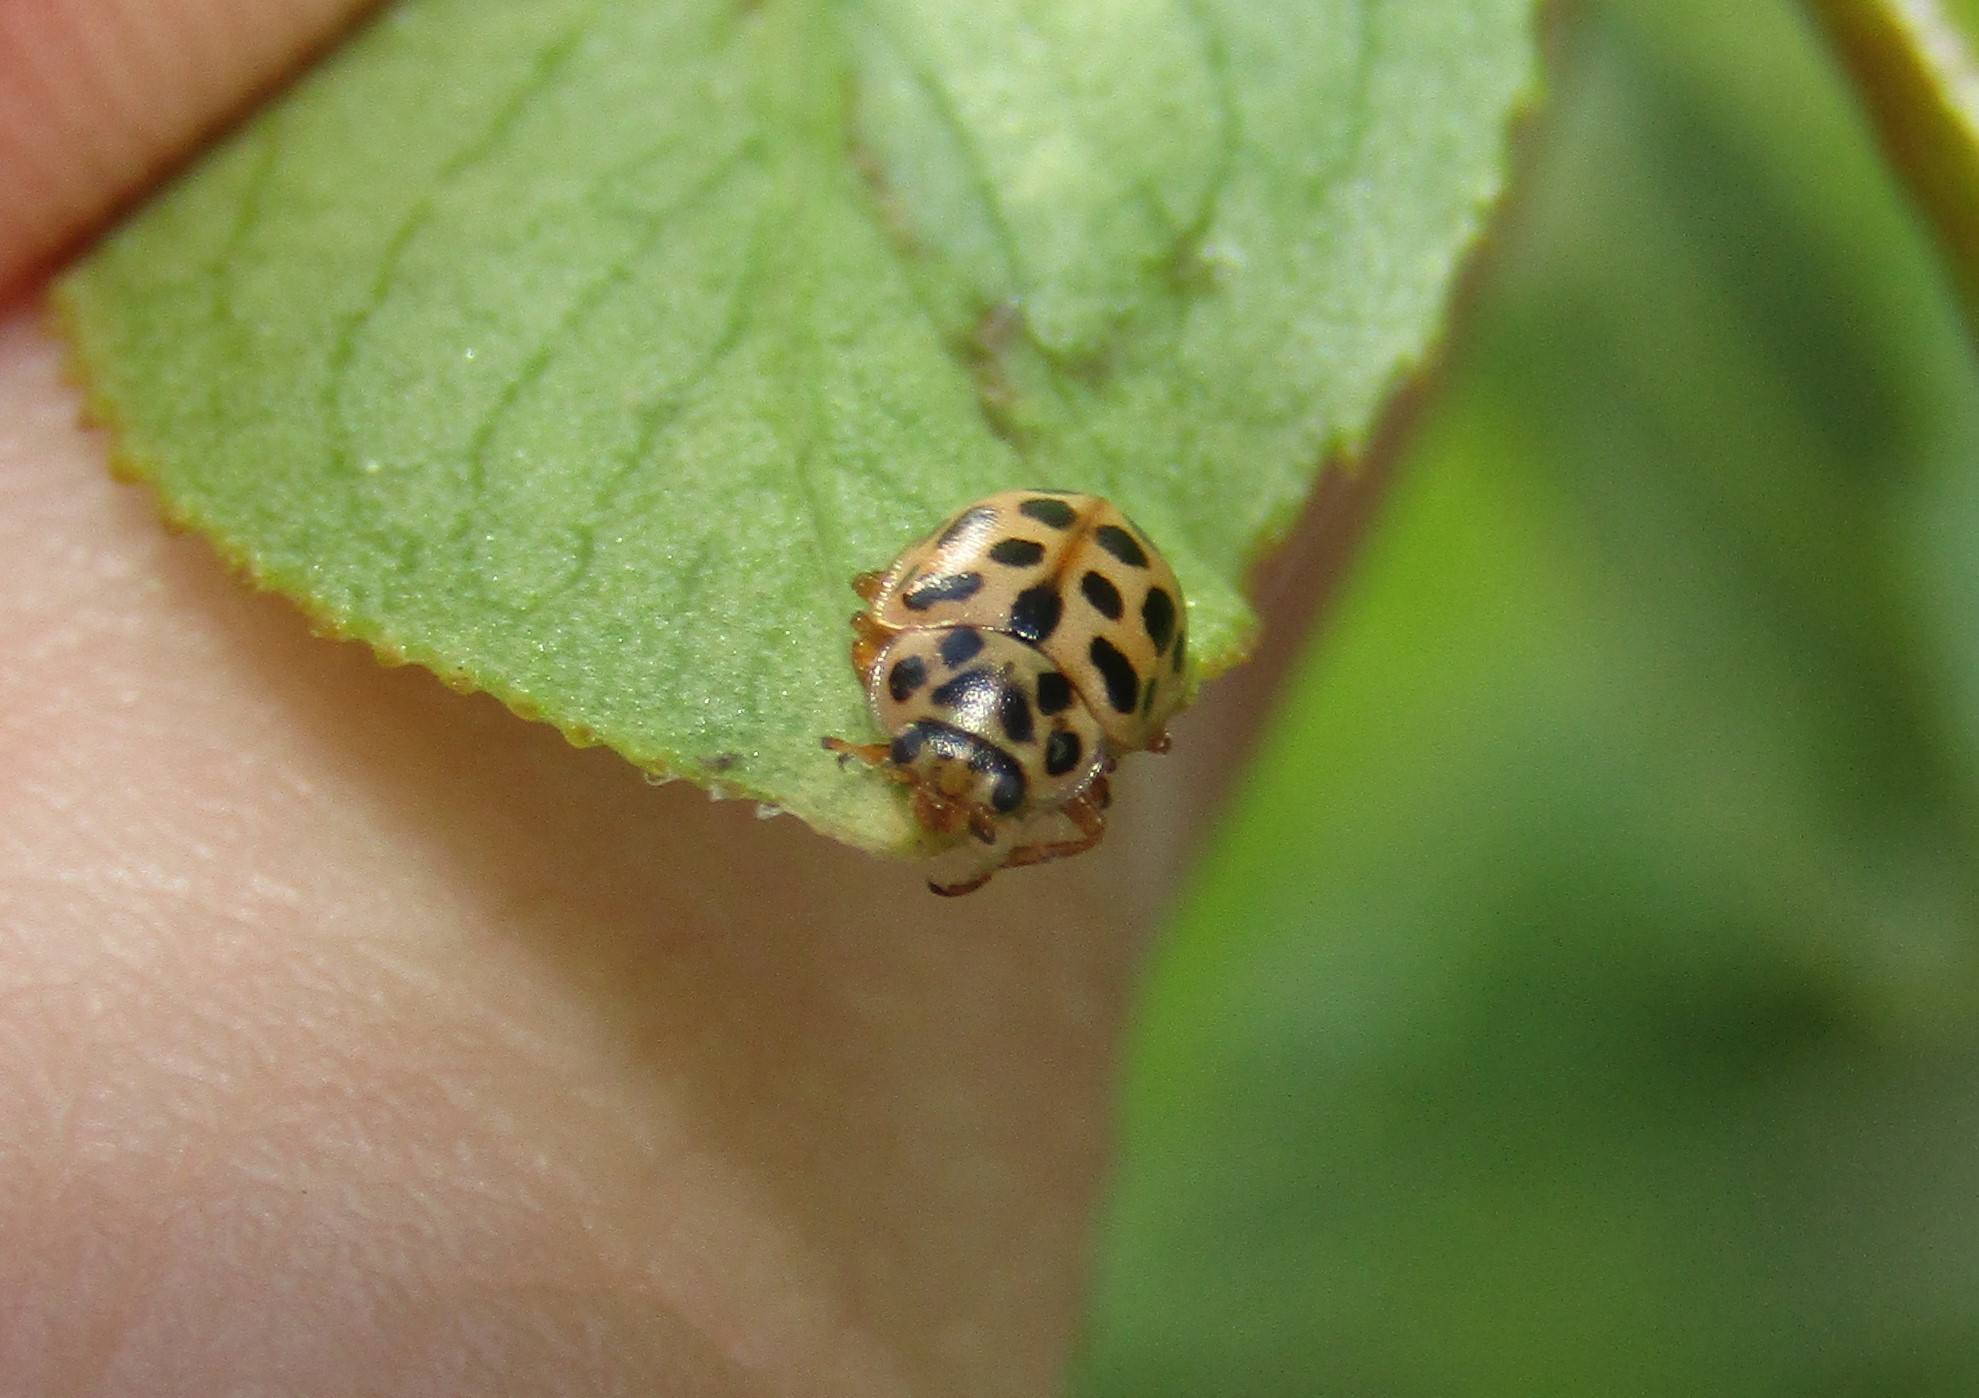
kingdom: Animalia
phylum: Arthropoda
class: Insecta
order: Coleoptera
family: Coccinellidae
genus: Anisosticta
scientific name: Anisosticta novemdecimpunctata
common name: Water ladybird
